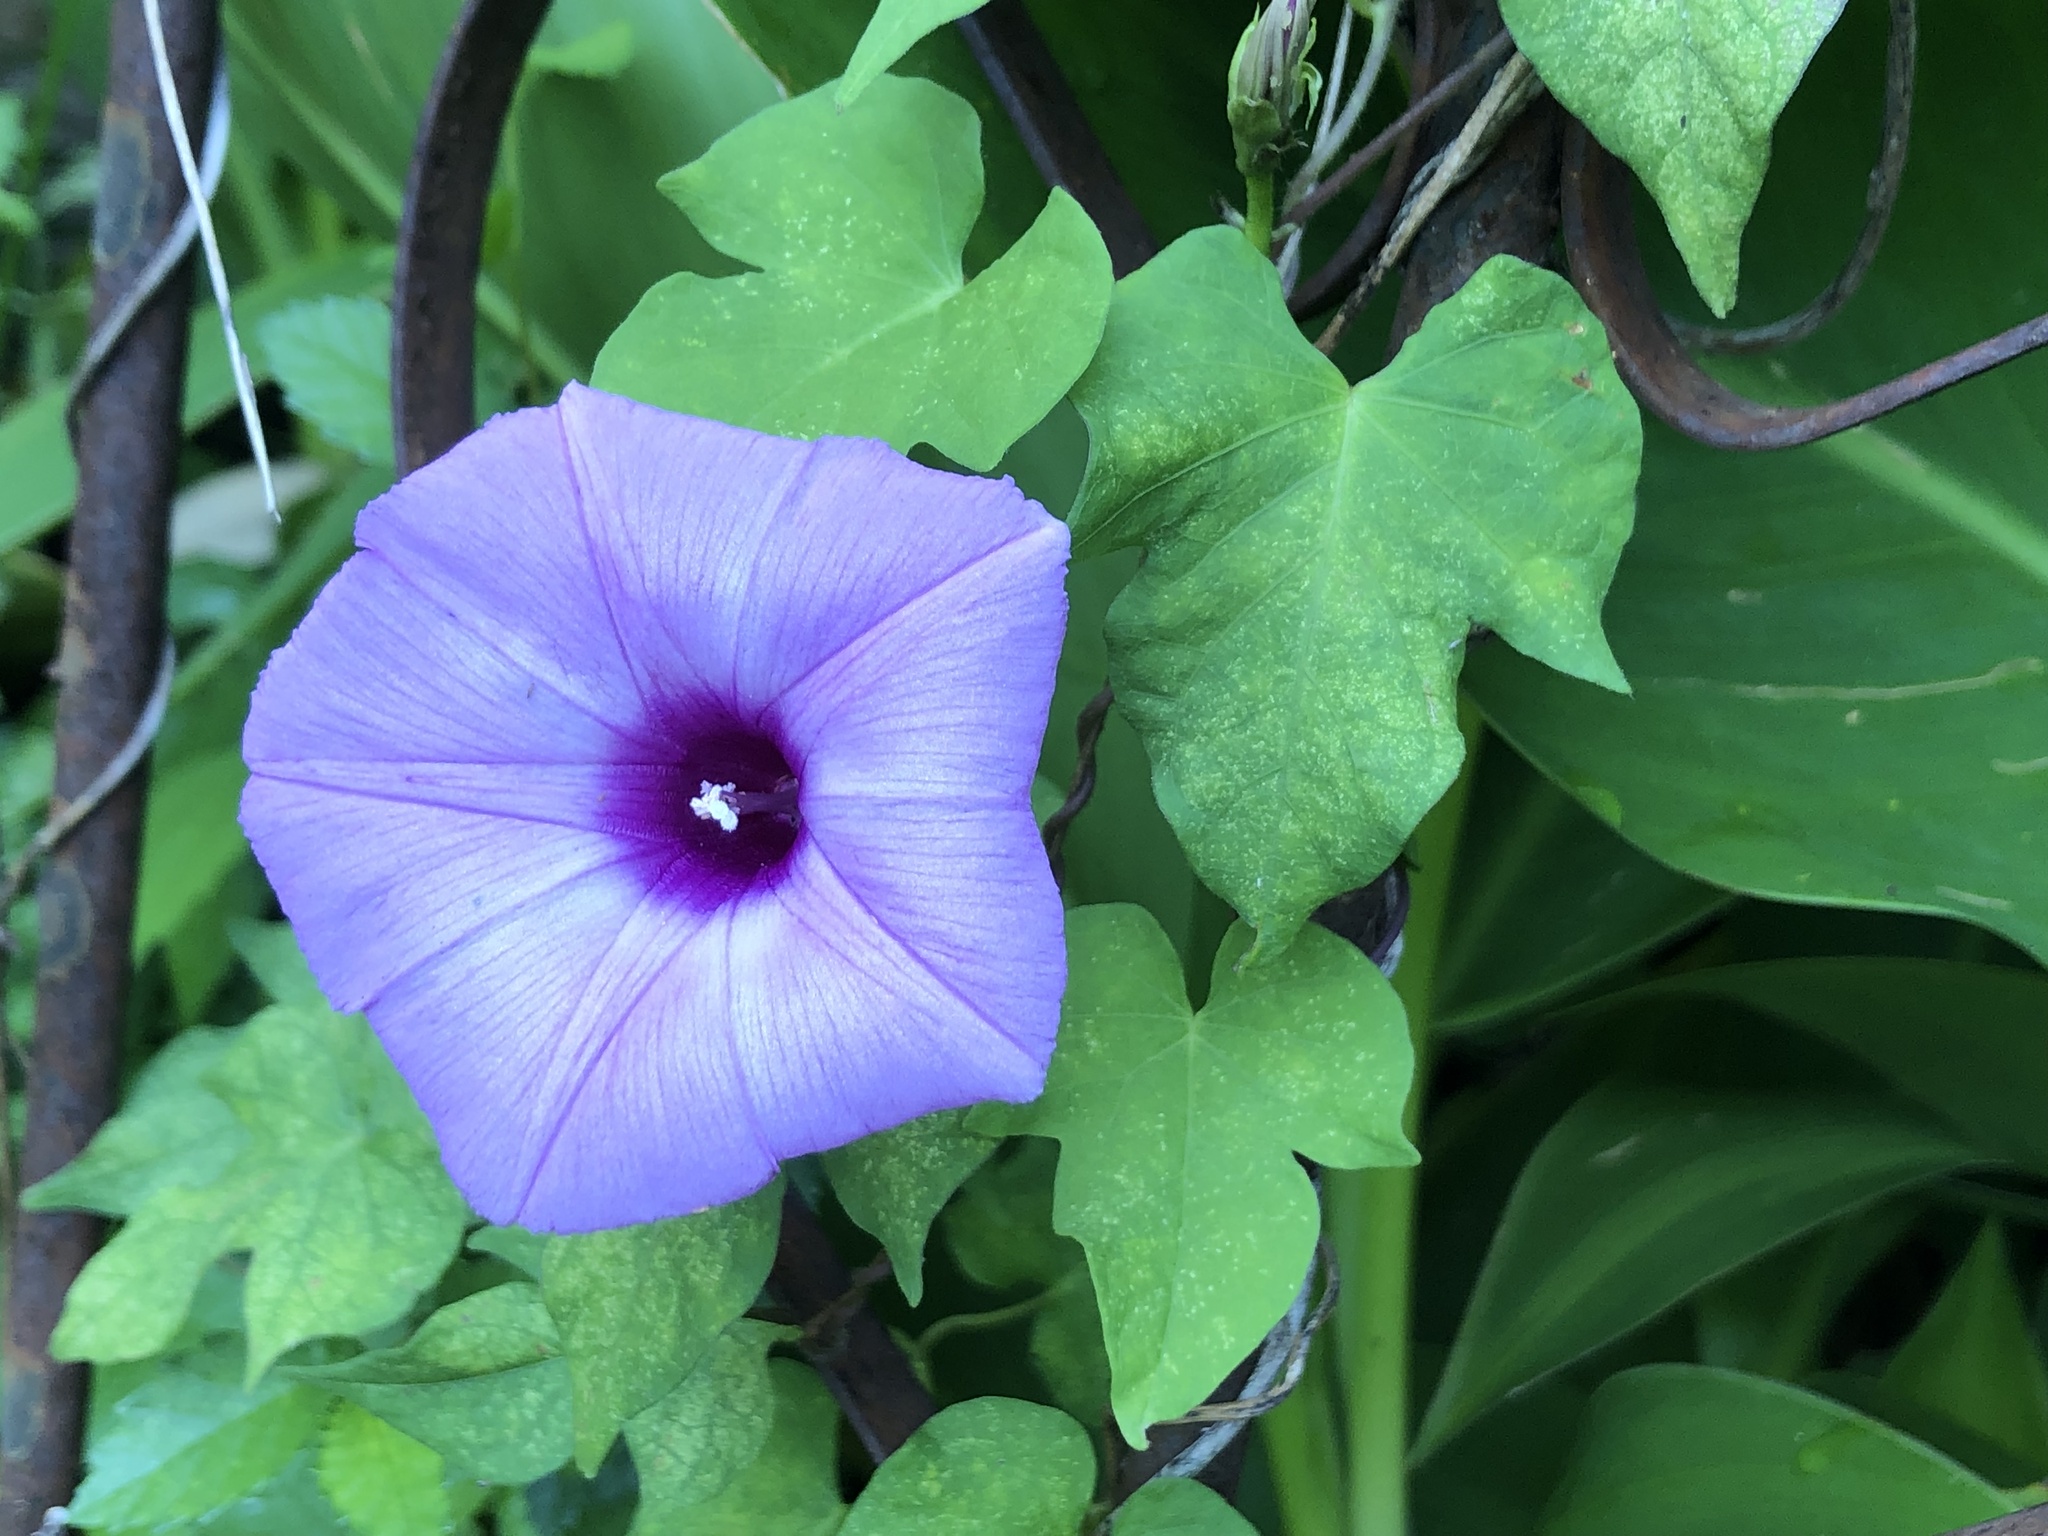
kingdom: Plantae
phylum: Tracheophyta
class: Magnoliopsida
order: Solanales
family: Convolvulaceae
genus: Ipomoea
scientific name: Ipomoea cordatotriloba
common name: Cotton morning glory
